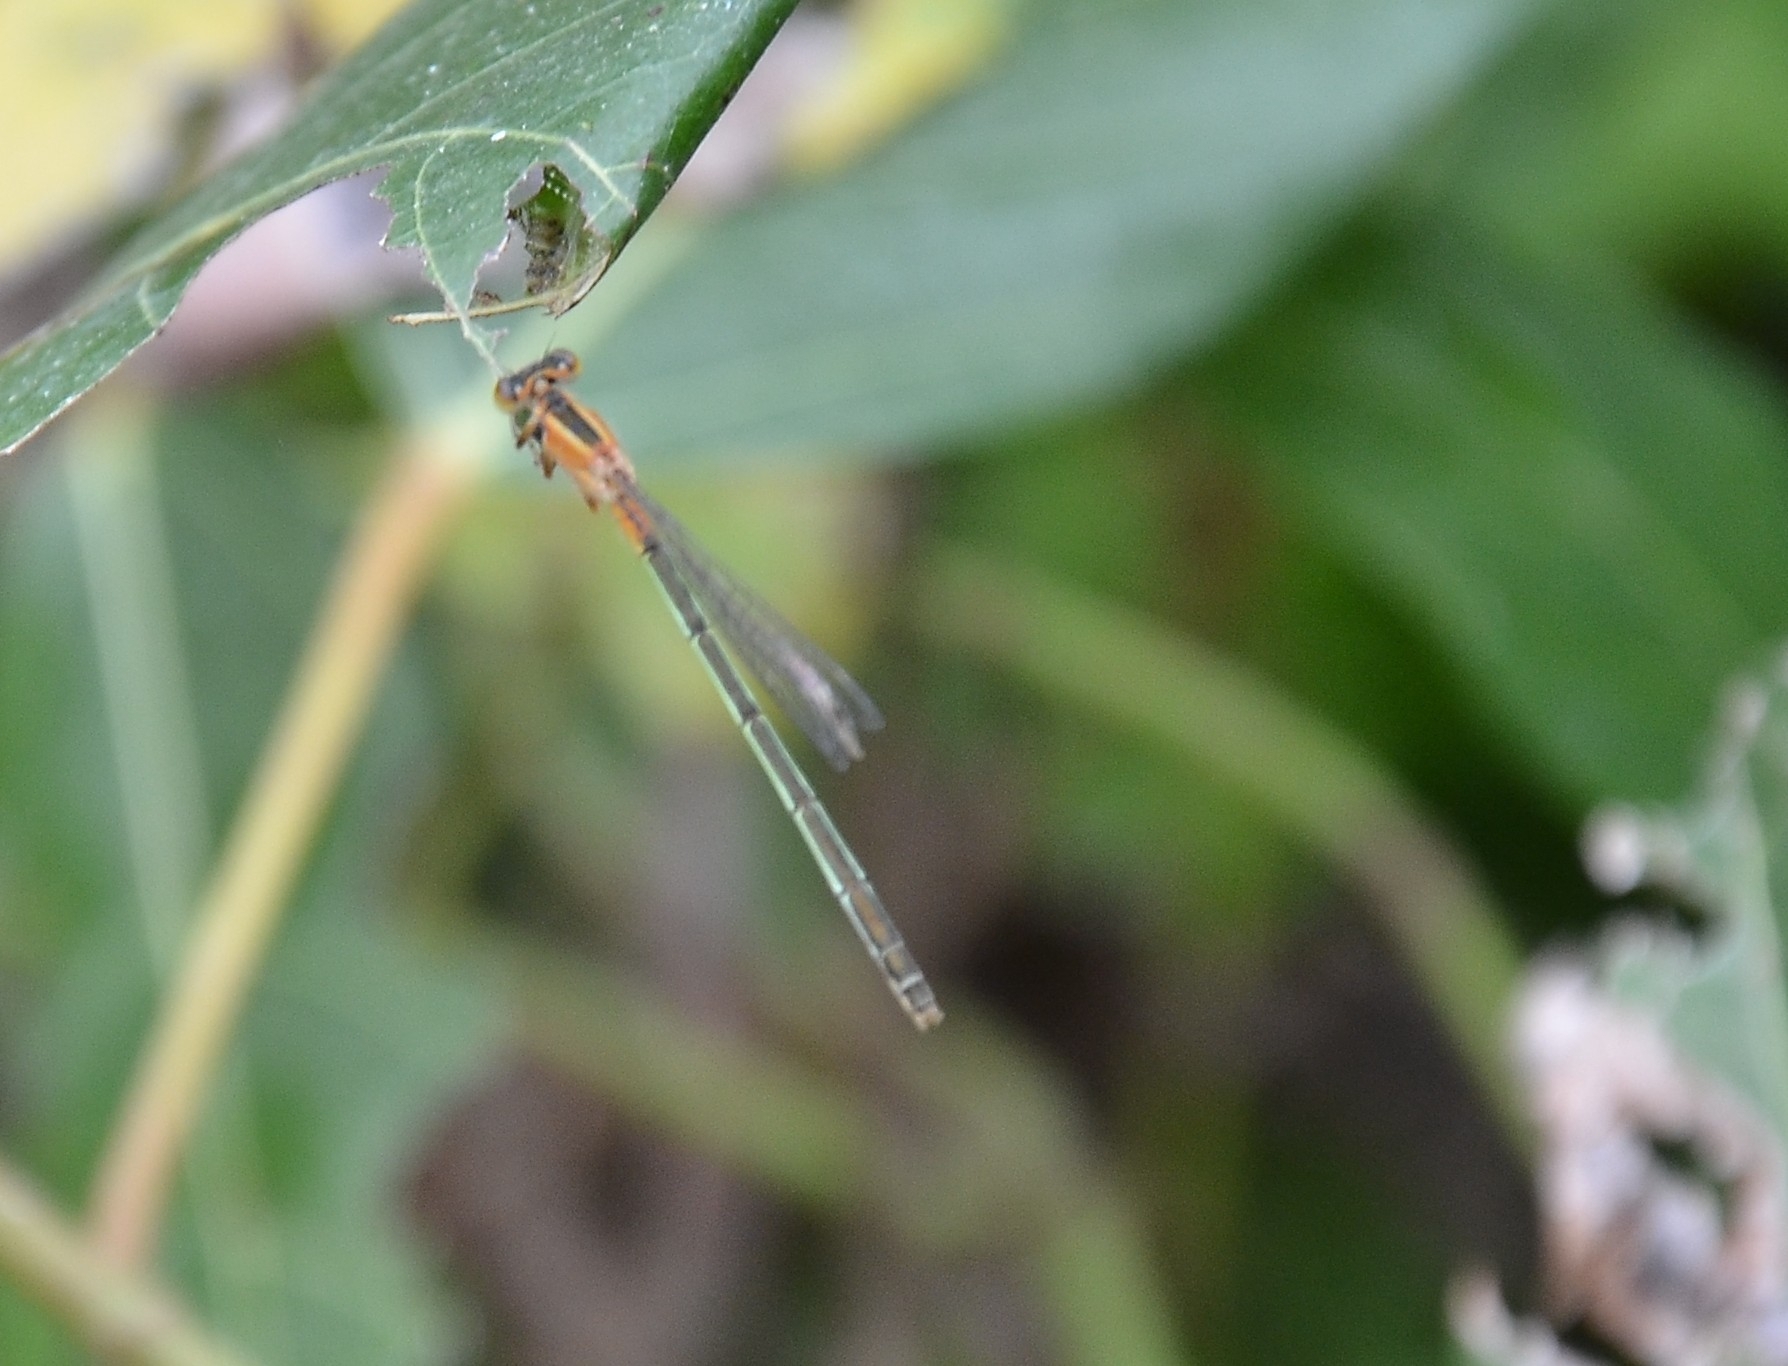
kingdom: Animalia
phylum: Arthropoda
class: Insecta
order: Odonata
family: Coenagrionidae
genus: Ischnura
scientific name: Ischnura senegalensis
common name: Tropical bluetail
